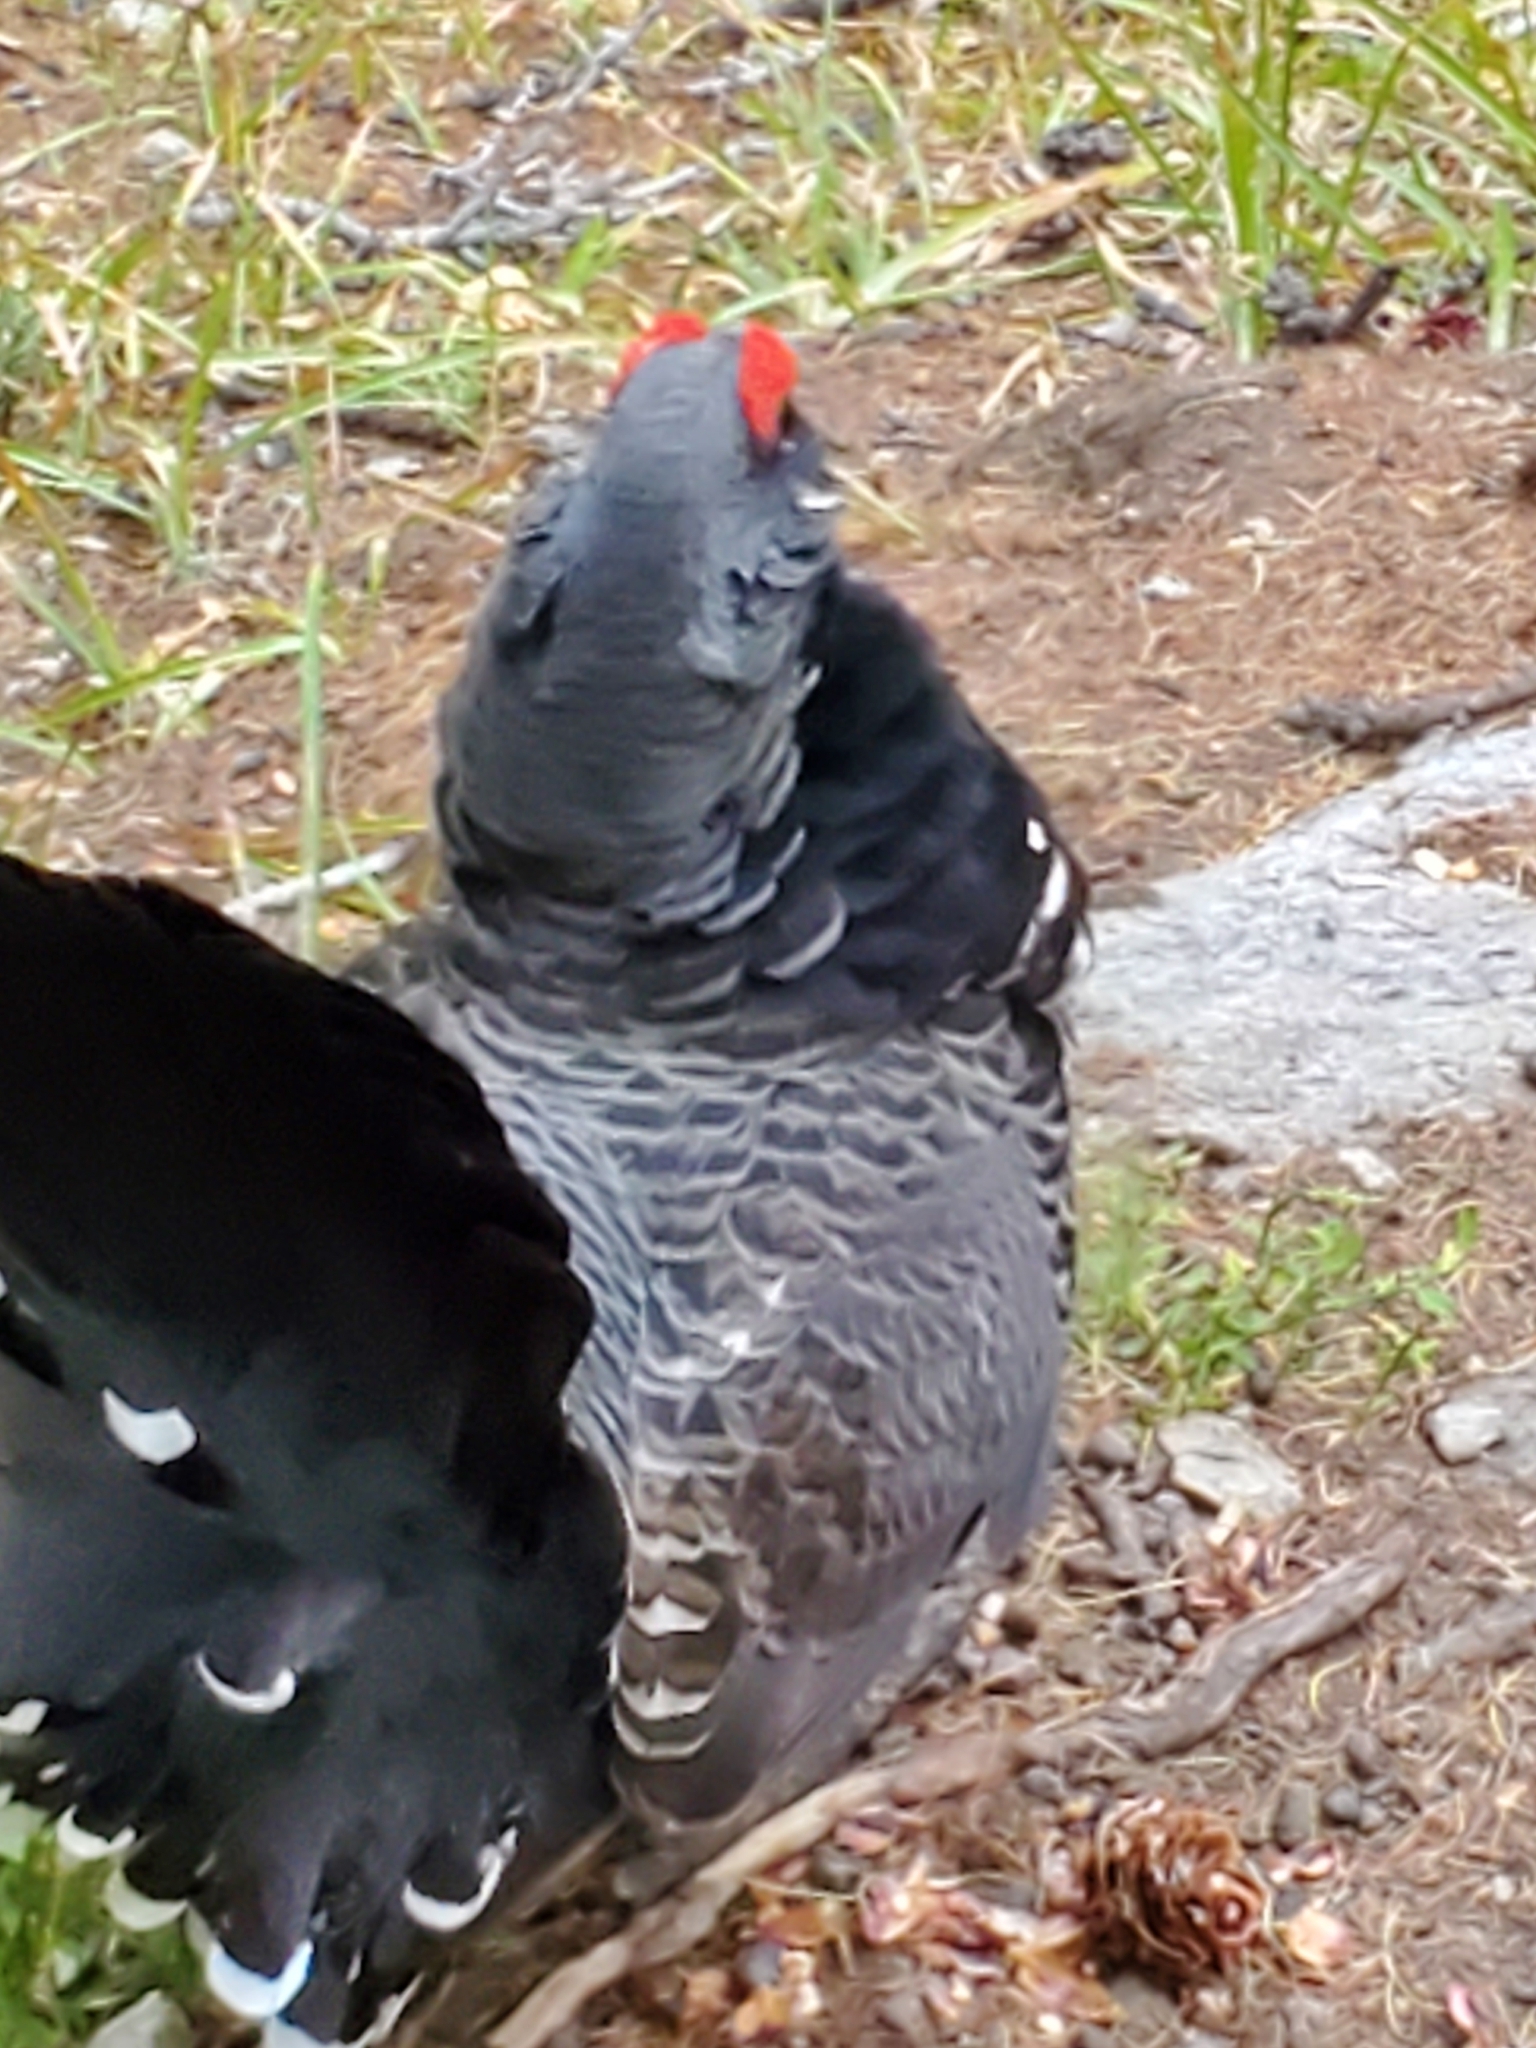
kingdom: Animalia
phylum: Chordata
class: Aves
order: Galliformes
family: Phasianidae
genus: Canachites
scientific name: Canachites canadensis
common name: Spruce grouse
